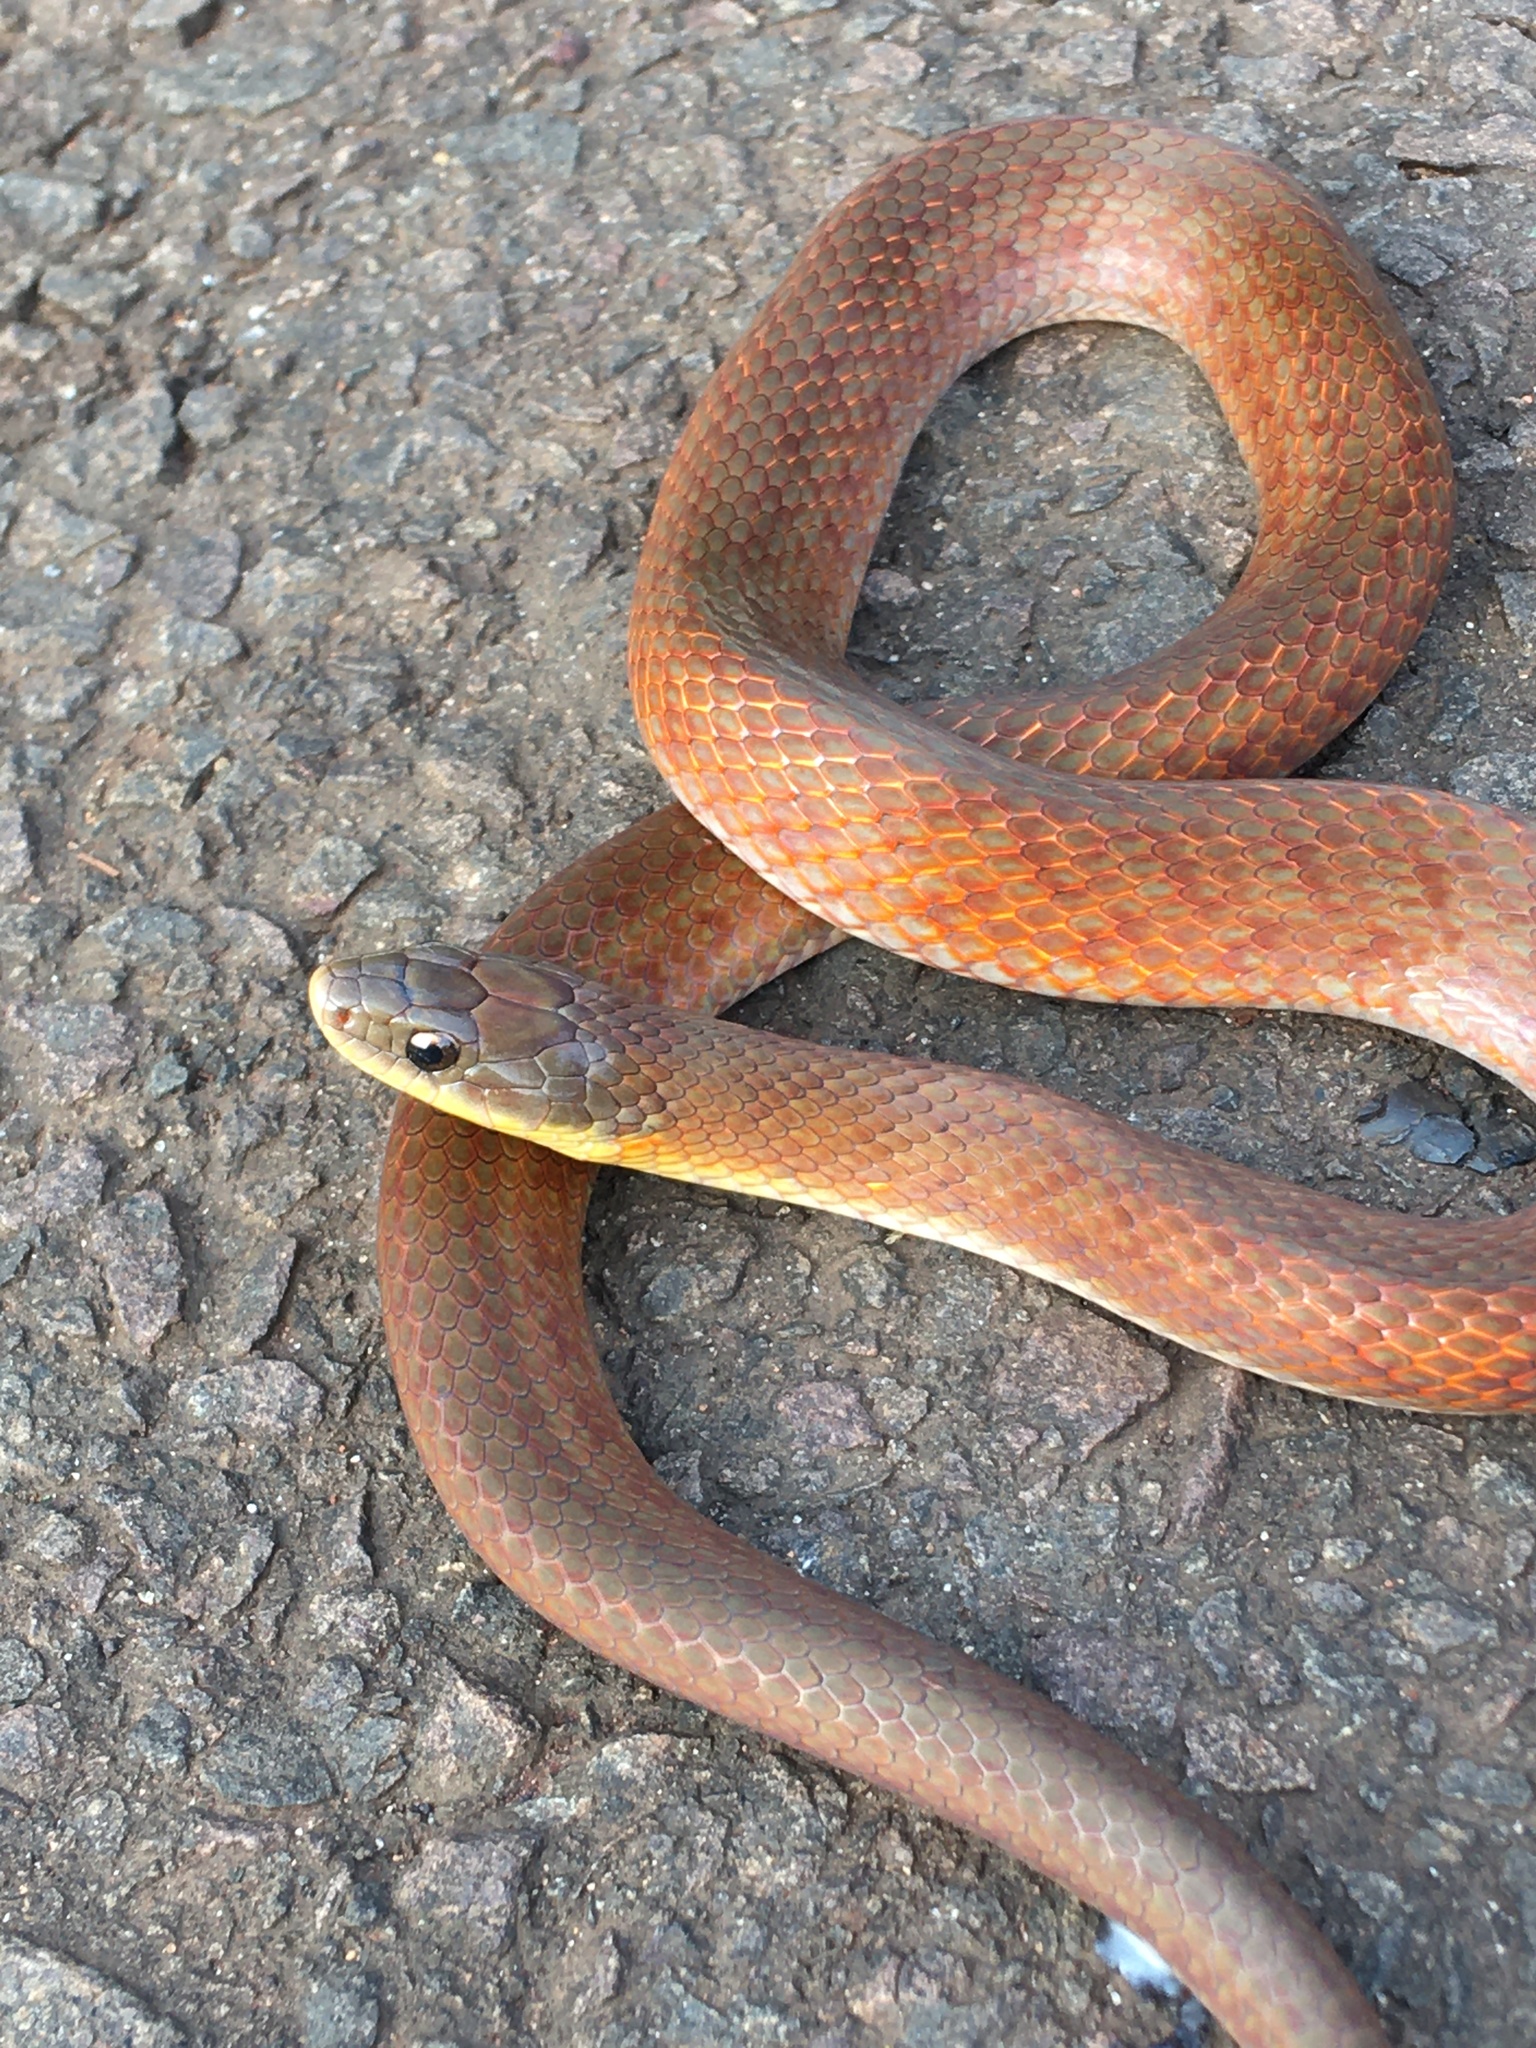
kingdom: Animalia
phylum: Chordata
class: Squamata
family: Colubridae
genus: Erythrolamprus
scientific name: Erythrolamprus poecilogyrus
